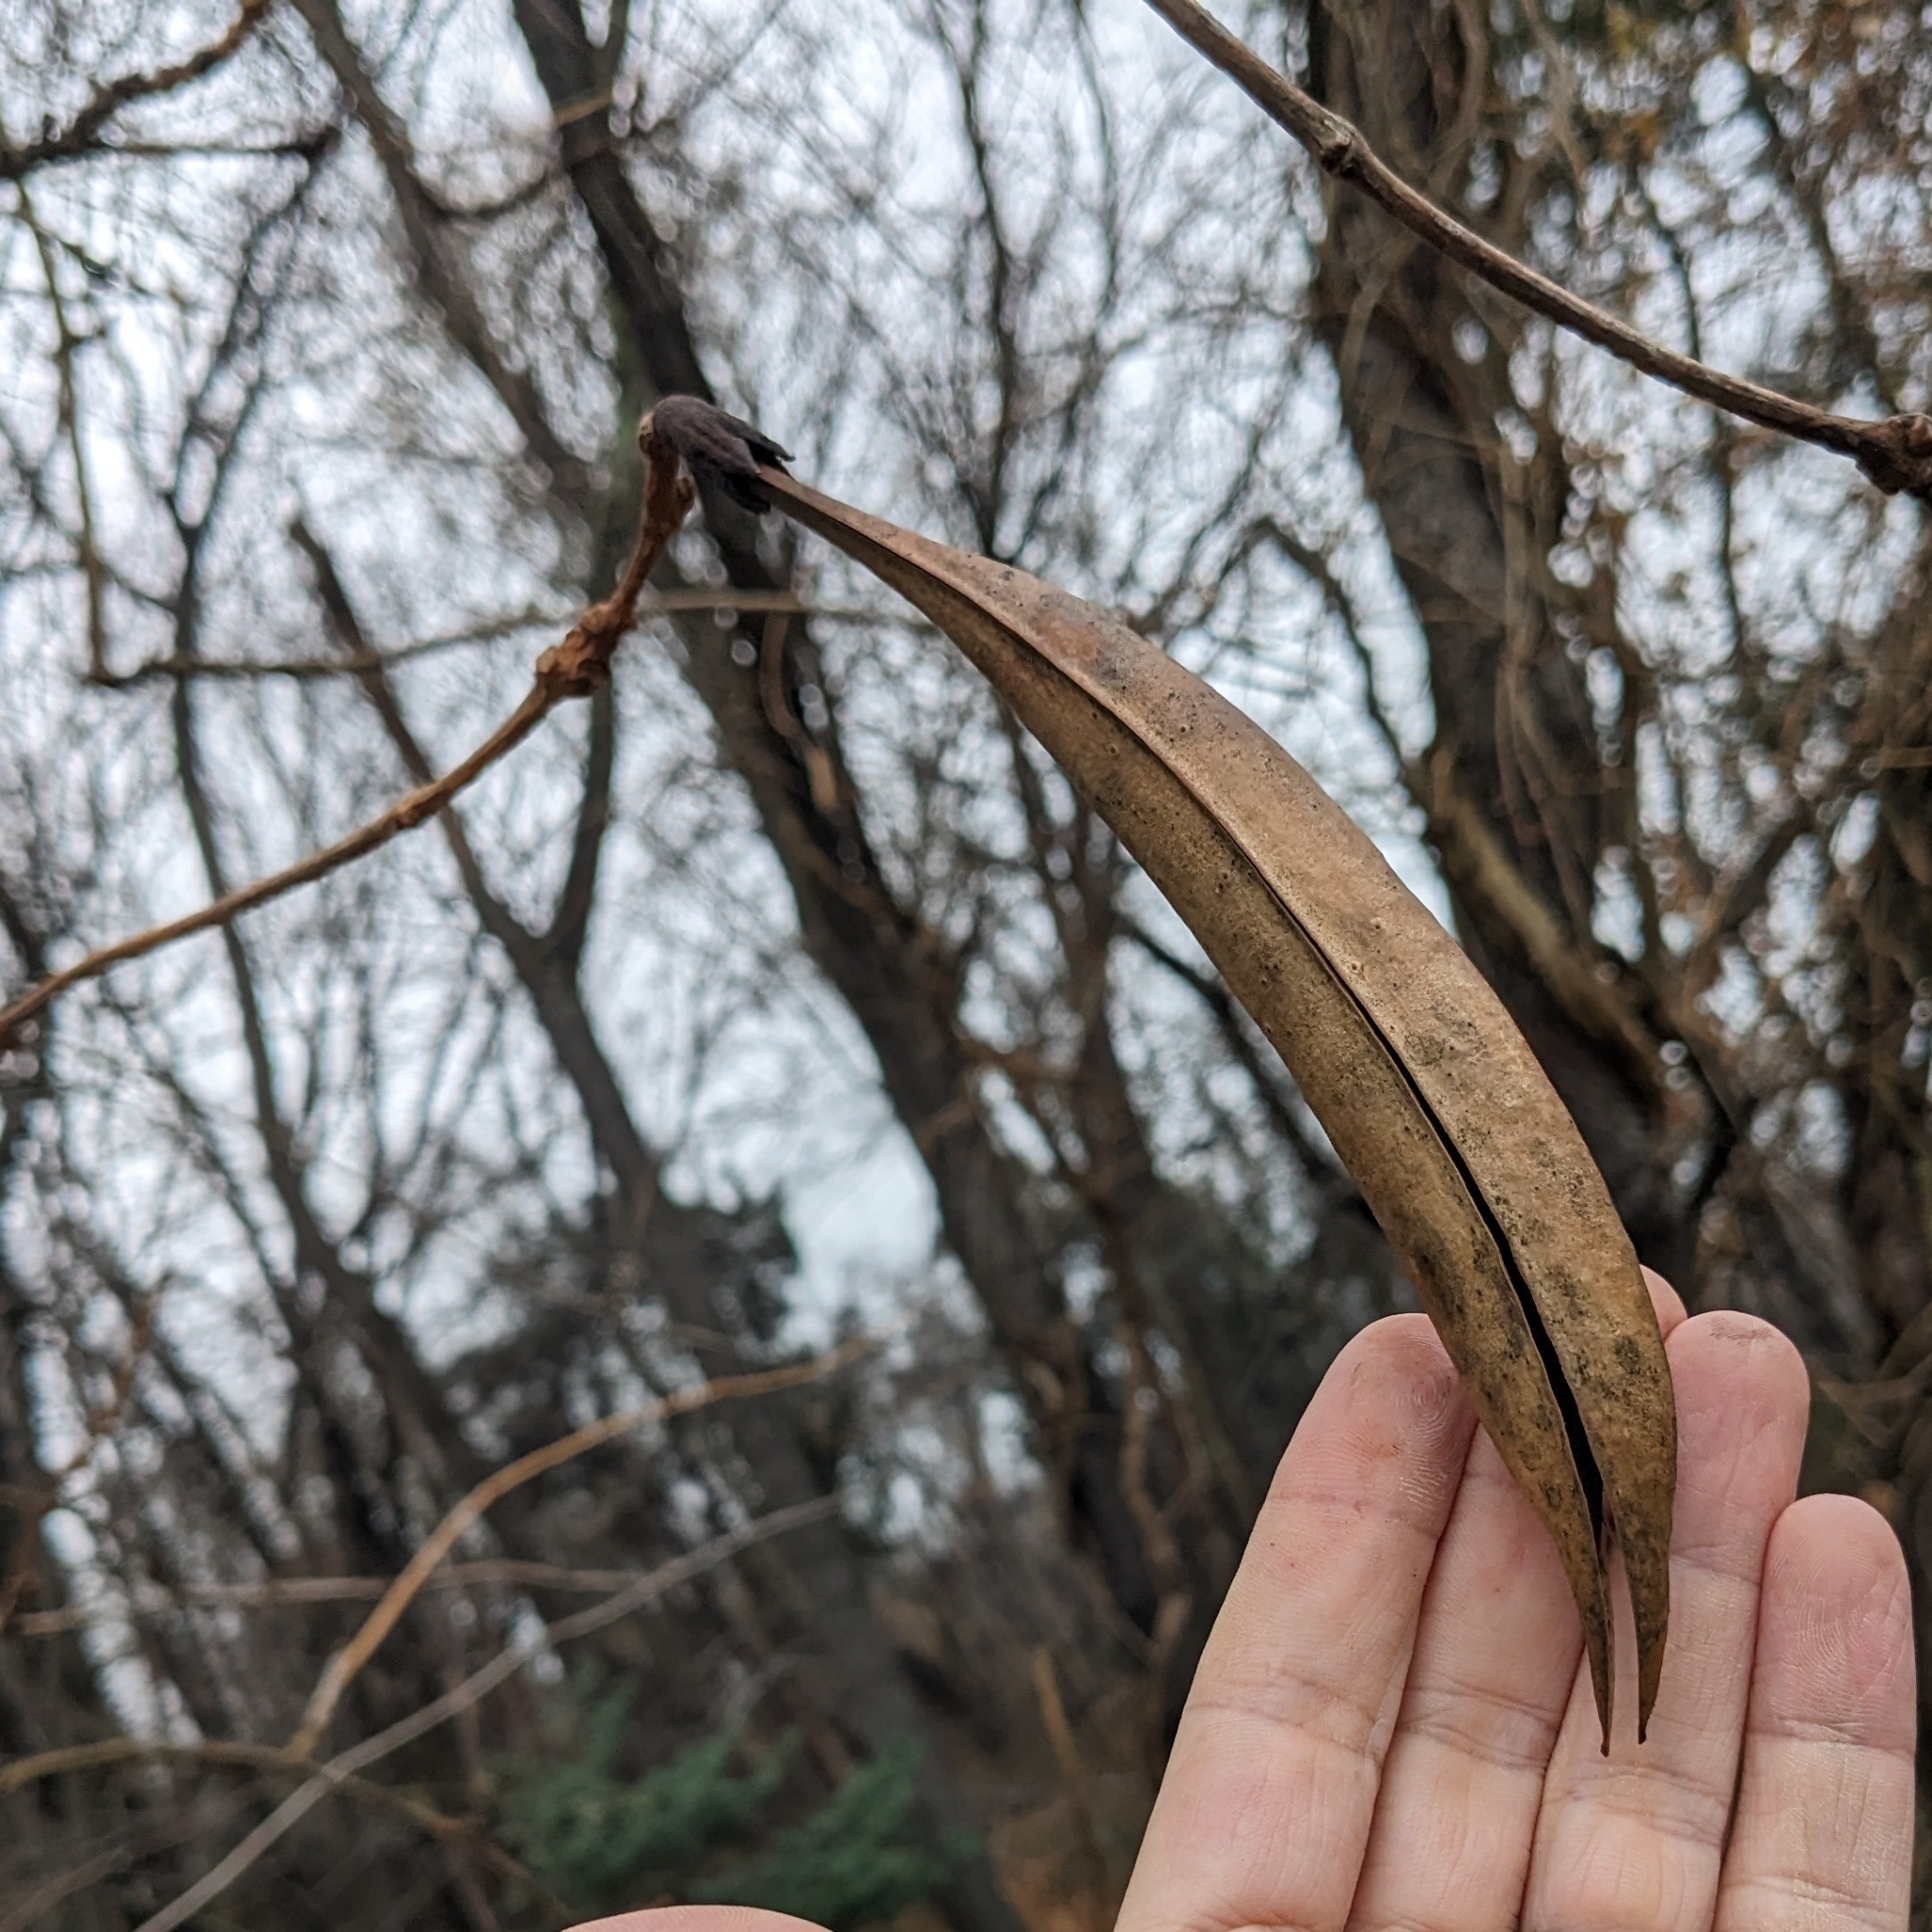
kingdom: Plantae
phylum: Tracheophyta
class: Magnoliopsida
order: Lamiales
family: Bignoniaceae
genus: Campsis
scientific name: Campsis radicans
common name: Trumpet-creeper
